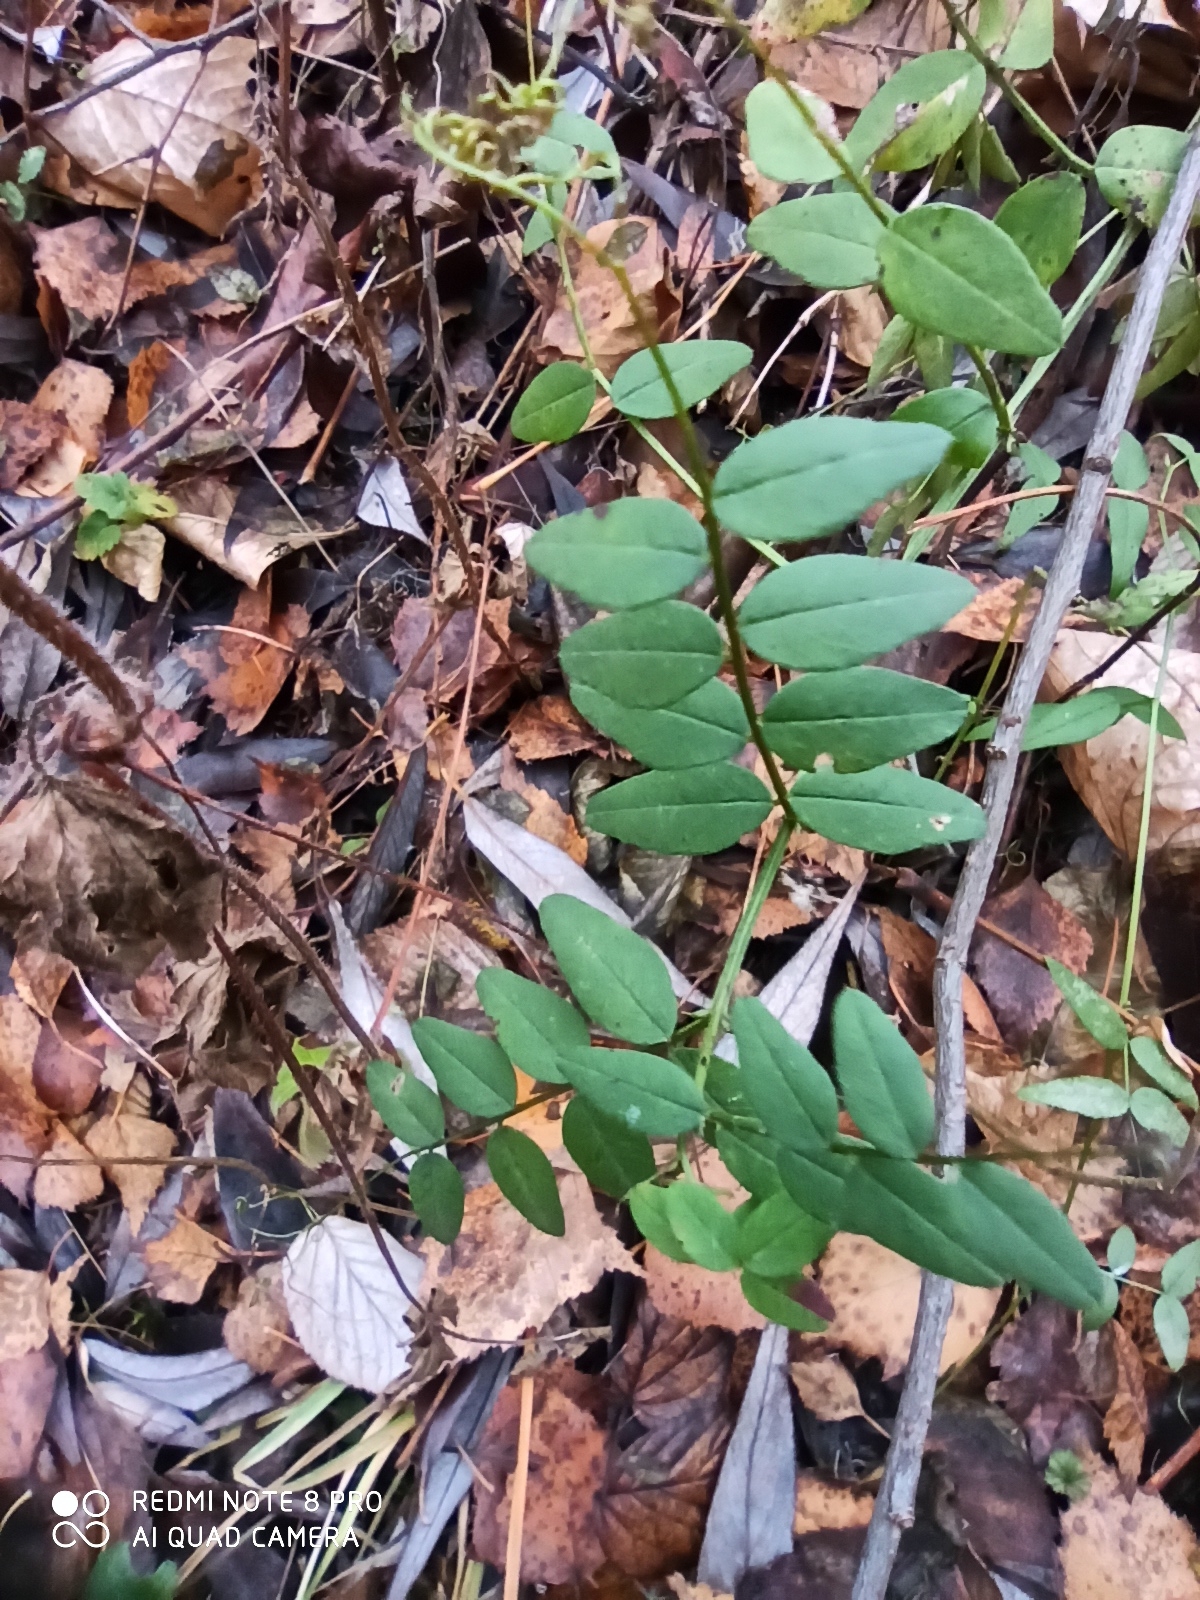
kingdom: Plantae
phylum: Tracheophyta
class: Magnoliopsida
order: Fabales
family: Fabaceae
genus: Vicia
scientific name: Vicia sepium
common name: Bush vetch
